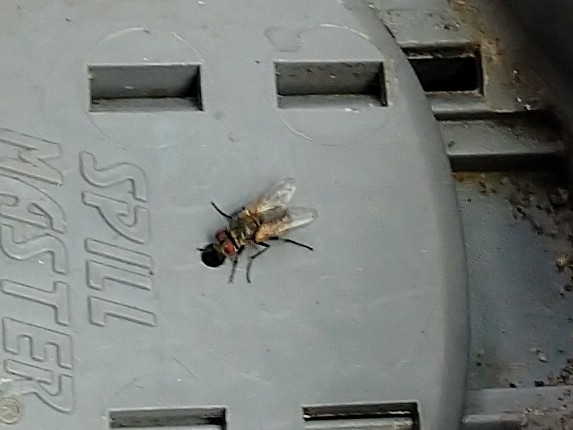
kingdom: Animalia
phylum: Arthropoda
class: Insecta
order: Diptera
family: Muscidae
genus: Musca
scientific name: Musca domestica
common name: House fly
